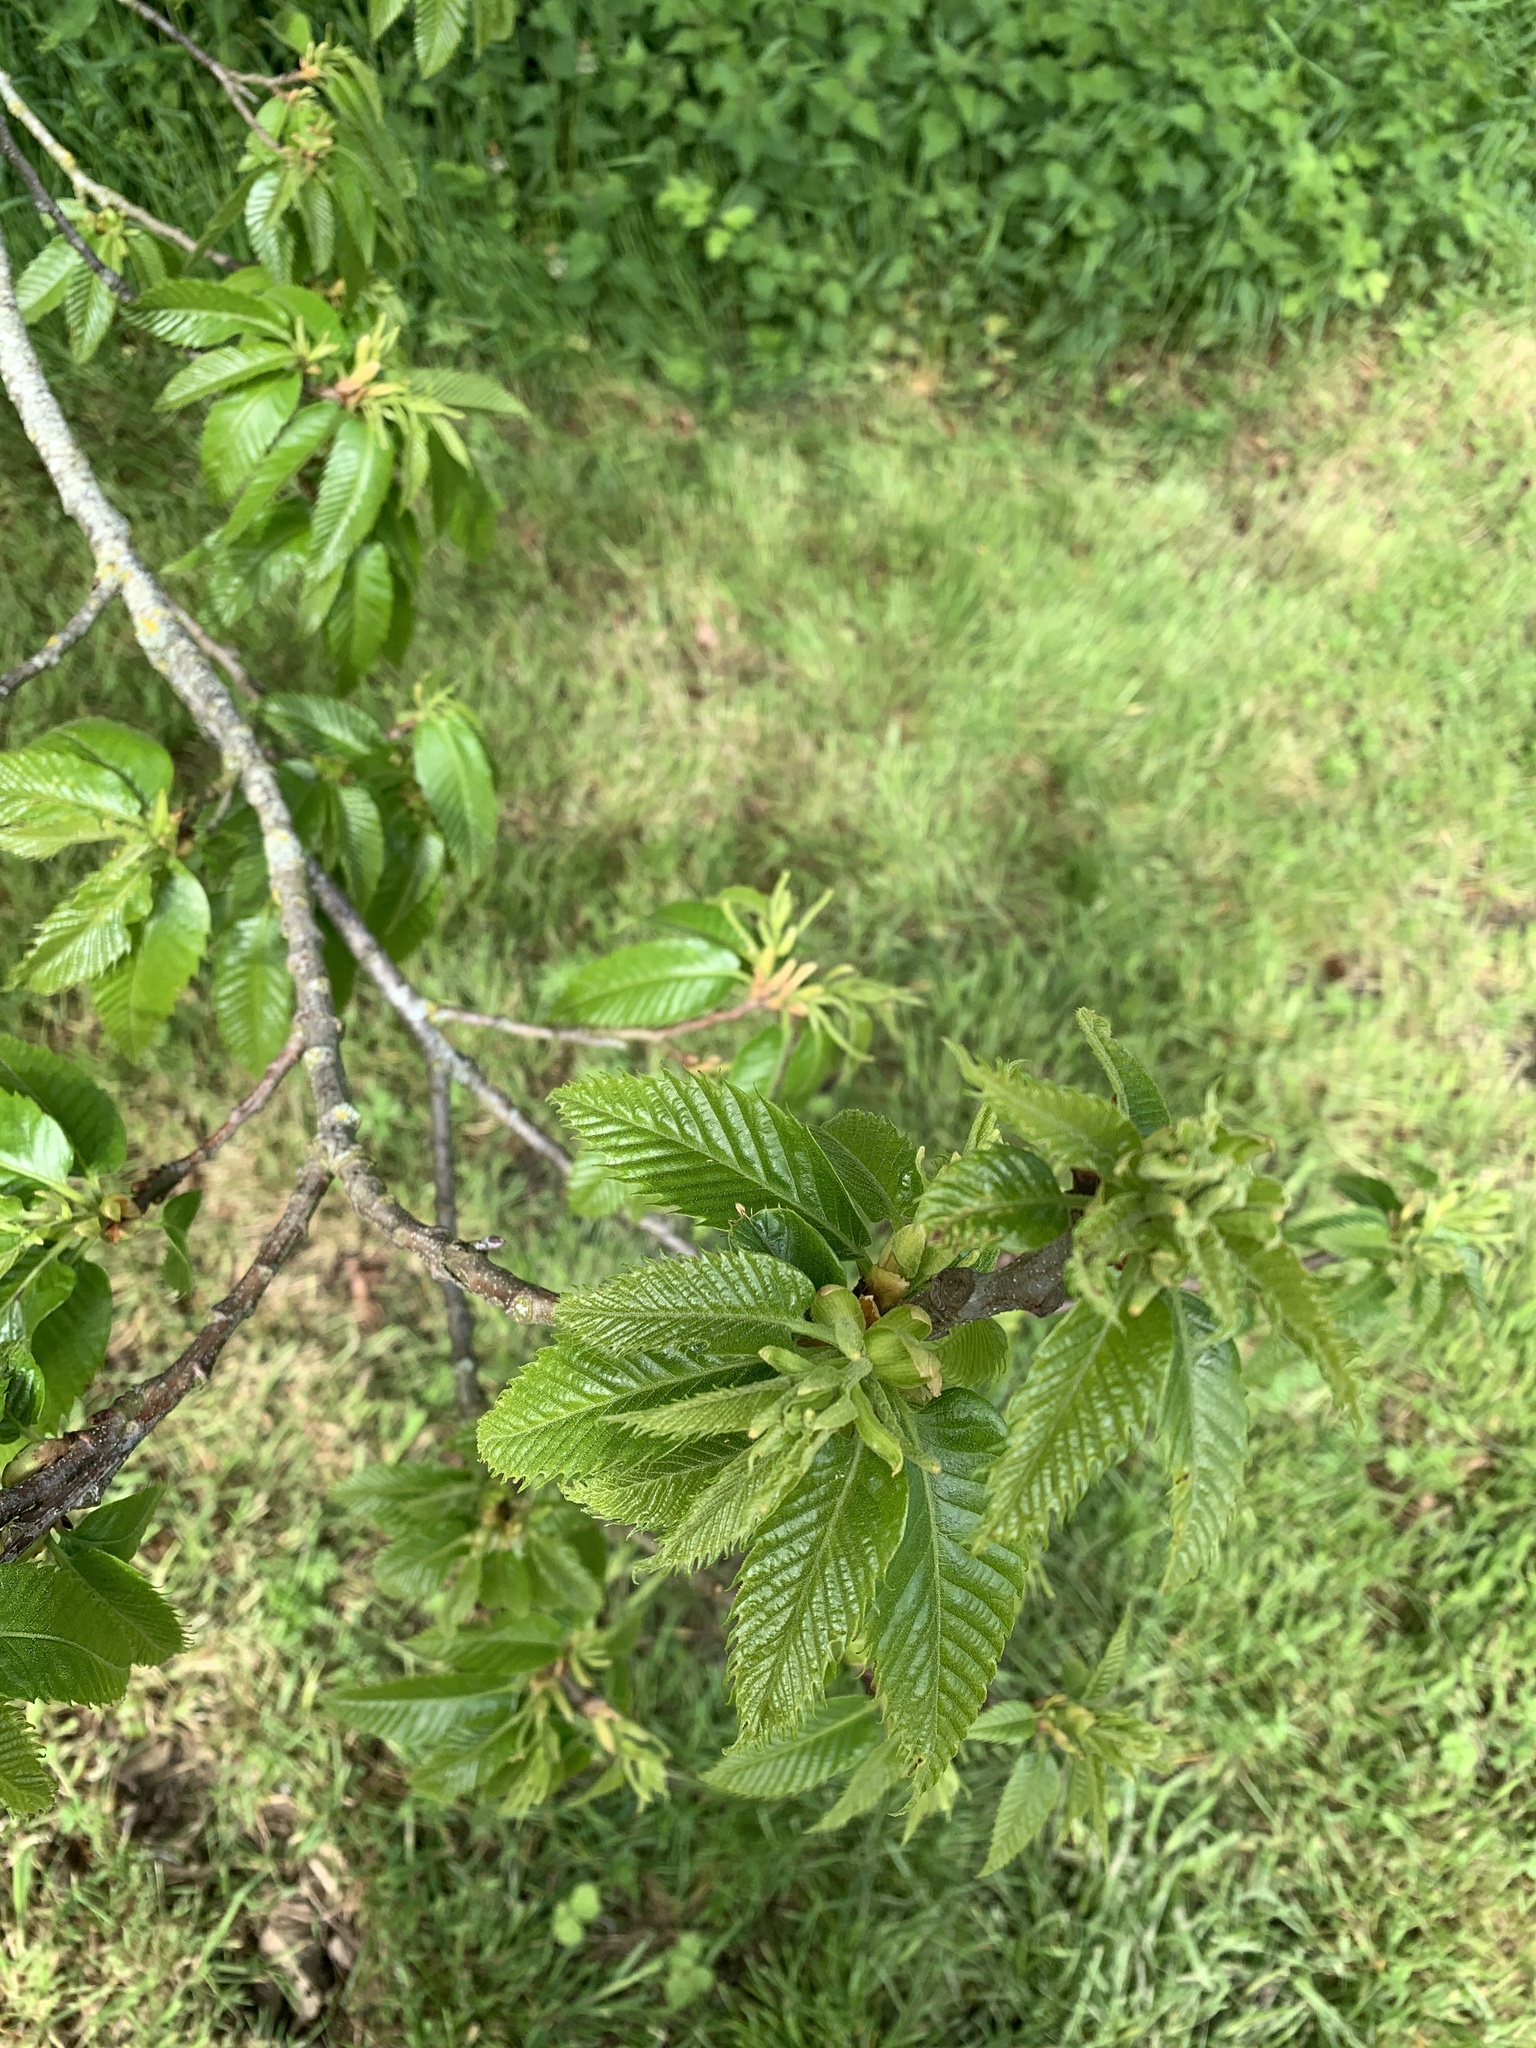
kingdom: Plantae
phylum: Tracheophyta
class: Magnoliopsida
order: Fagales
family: Betulaceae
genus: Carpinus
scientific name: Carpinus betulus
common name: Hornbeam
